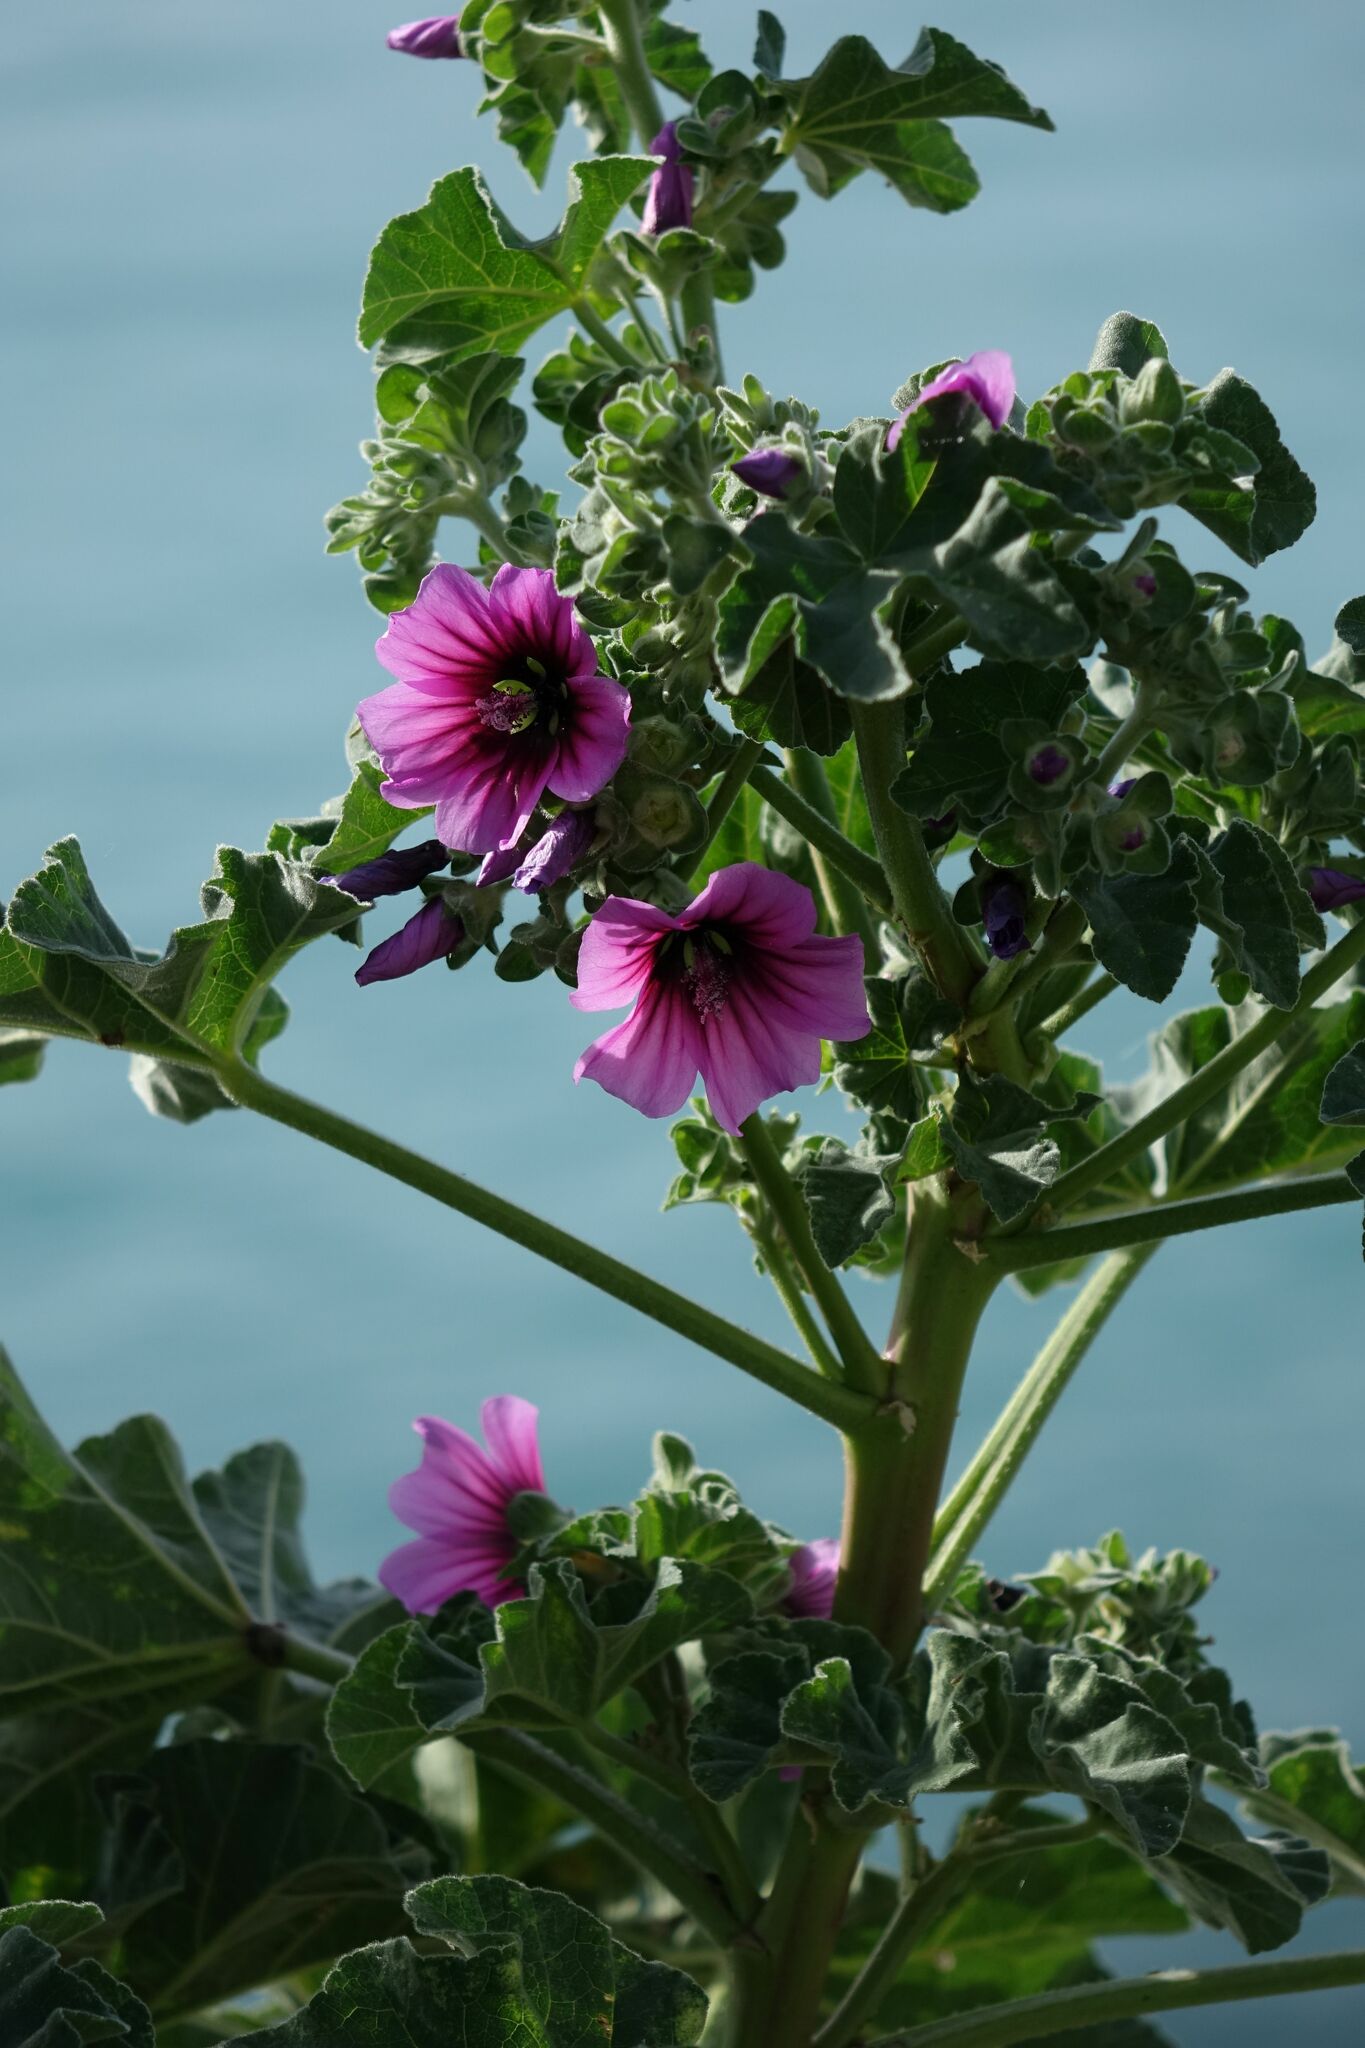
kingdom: Plantae
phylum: Tracheophyta
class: Magnoliopsida
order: Malvales
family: Malvaceae
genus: Malva
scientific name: Malva arborea
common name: Tree mallow
